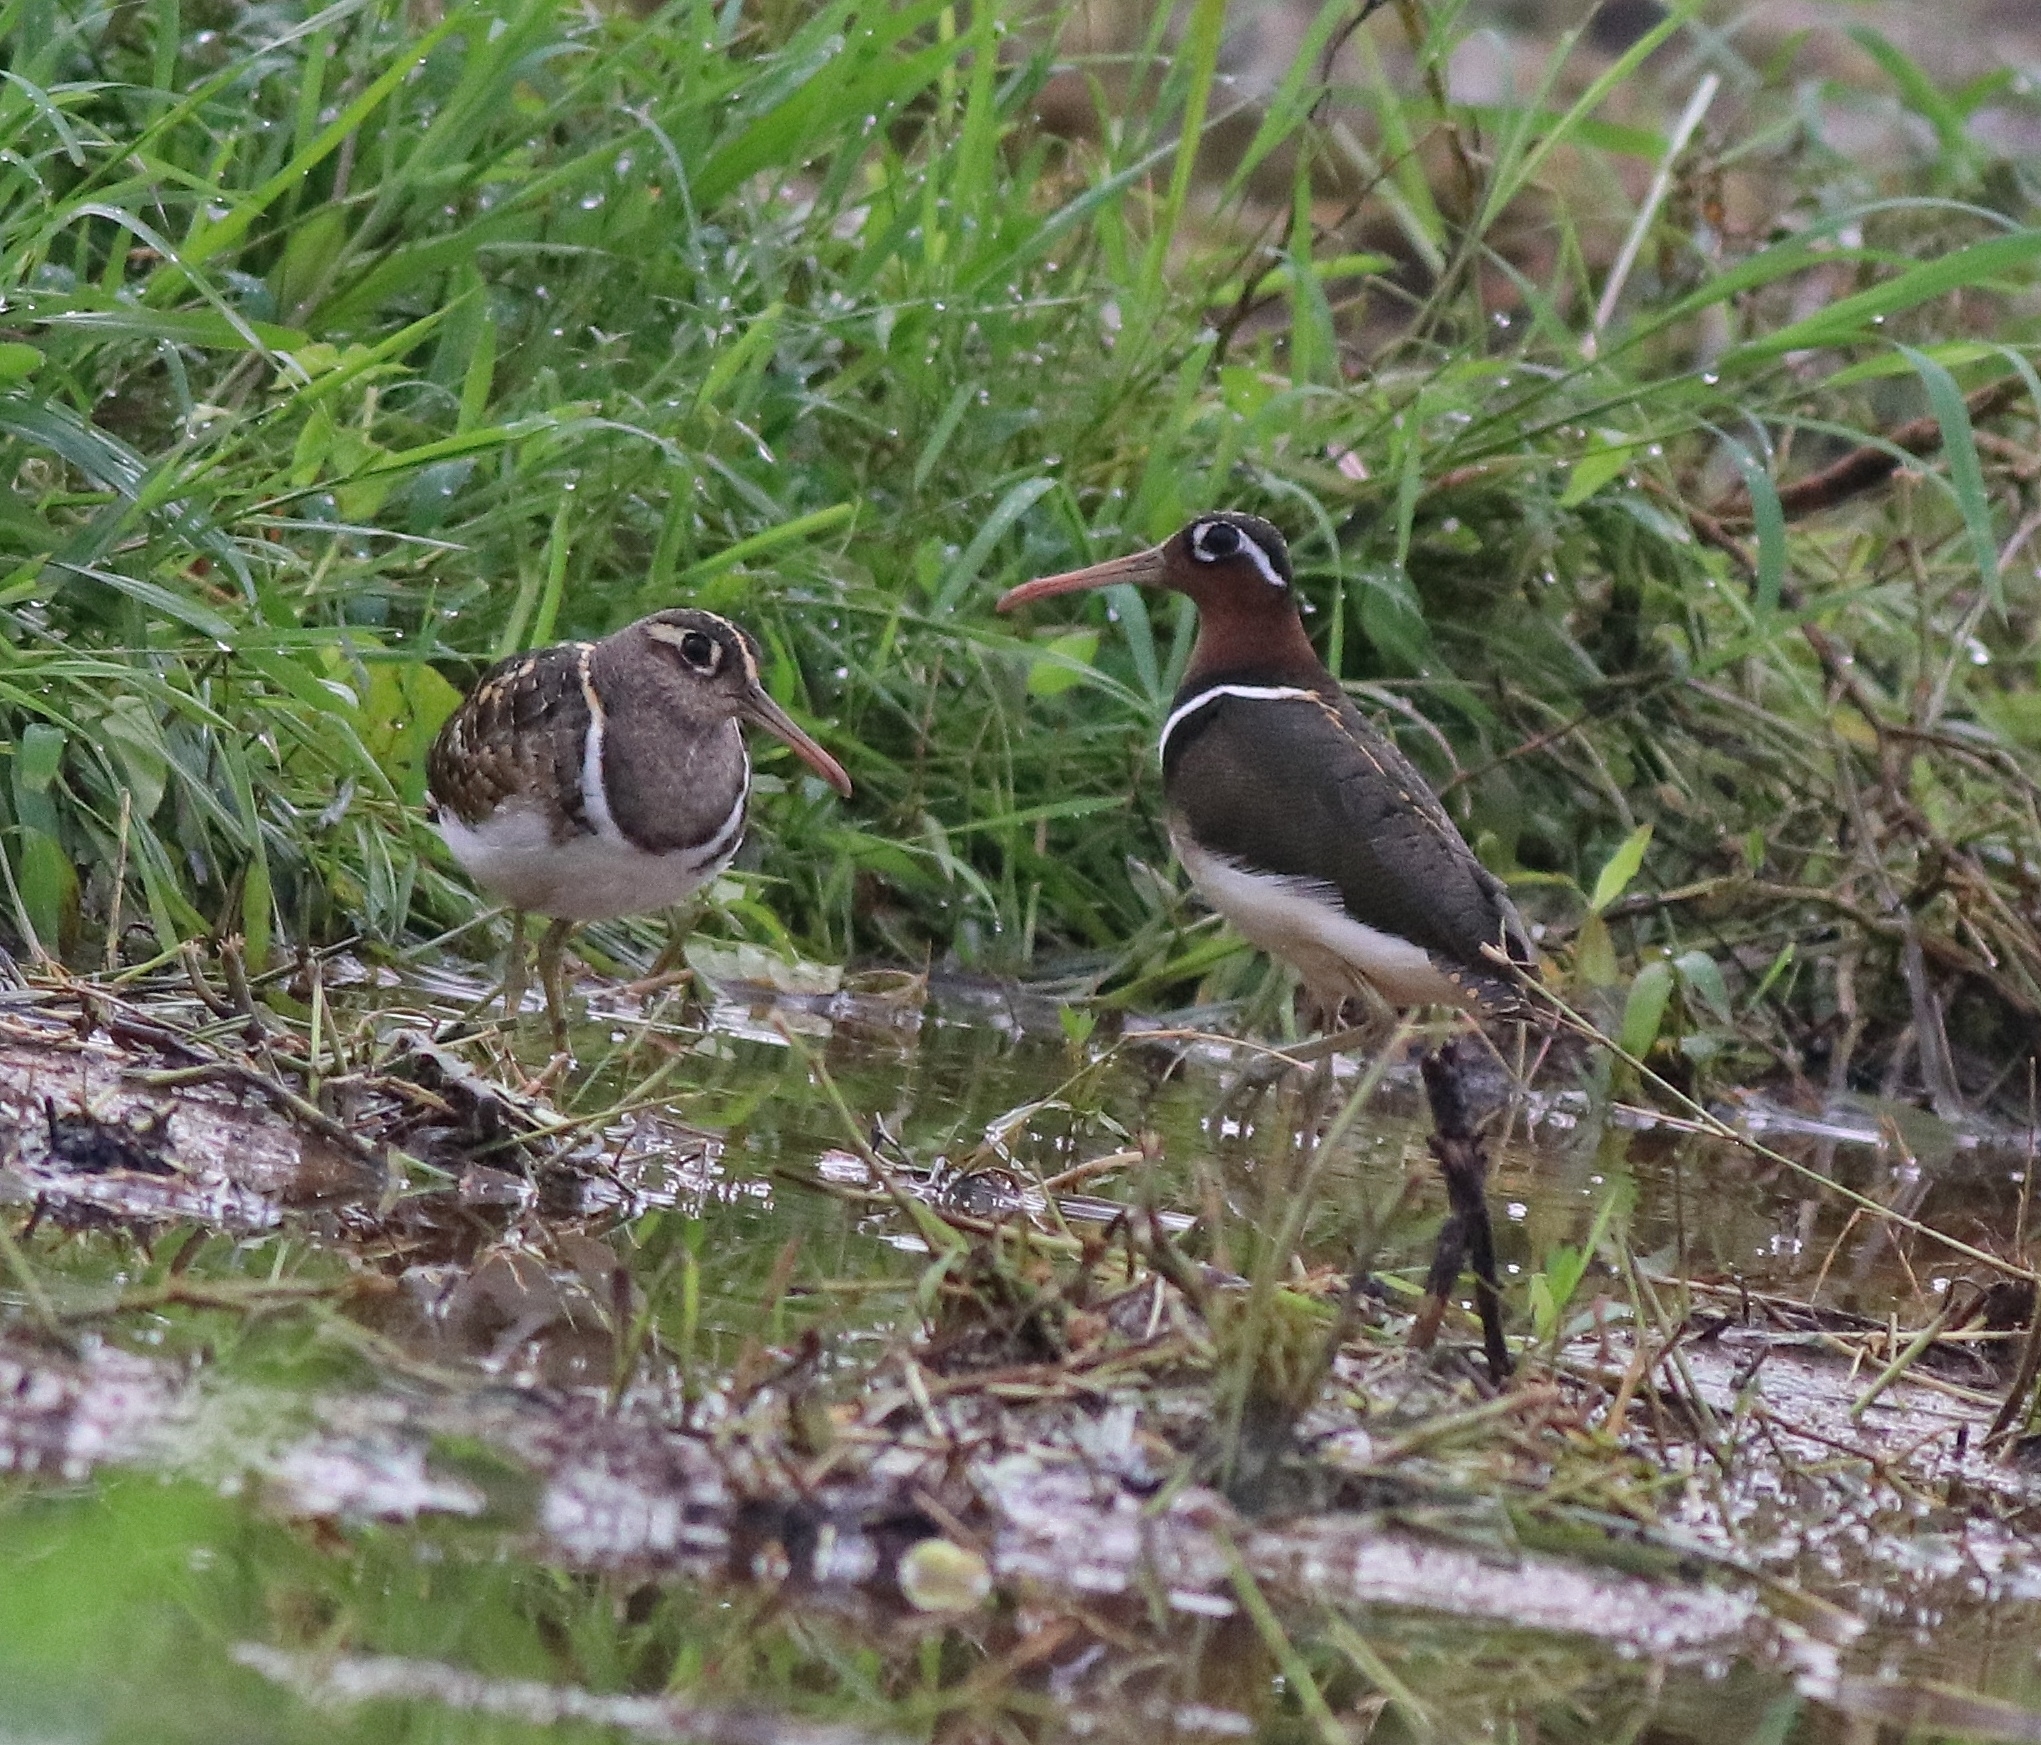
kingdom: Animalia
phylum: Chordata
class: Aves
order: Charadriiformes
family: Rostratulidae
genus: Rostratula
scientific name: Rostratula benghalensis
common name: Greater painted-snipe
